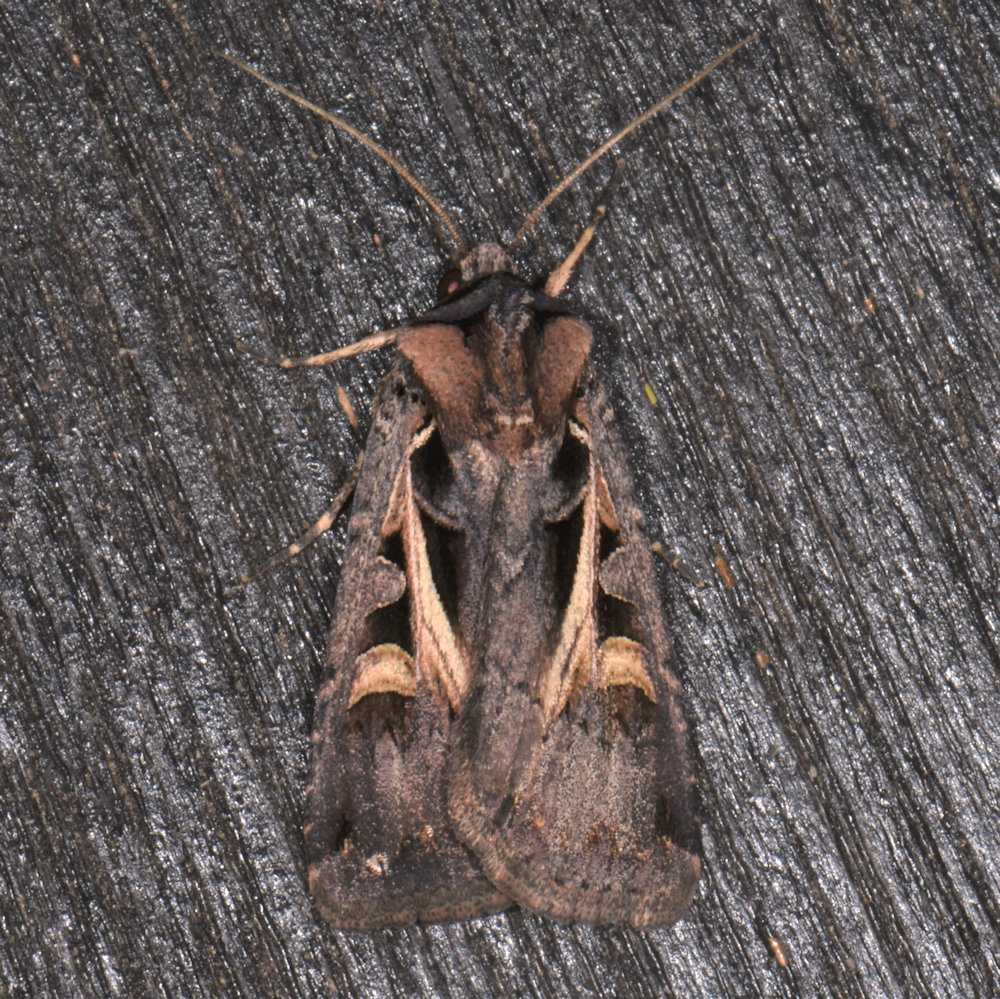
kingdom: Animalia
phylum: Arthropoda
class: Insecta
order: Lepidoptera
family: Noctuidae
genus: Feltia
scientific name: Feltia herilis
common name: Master's dart
